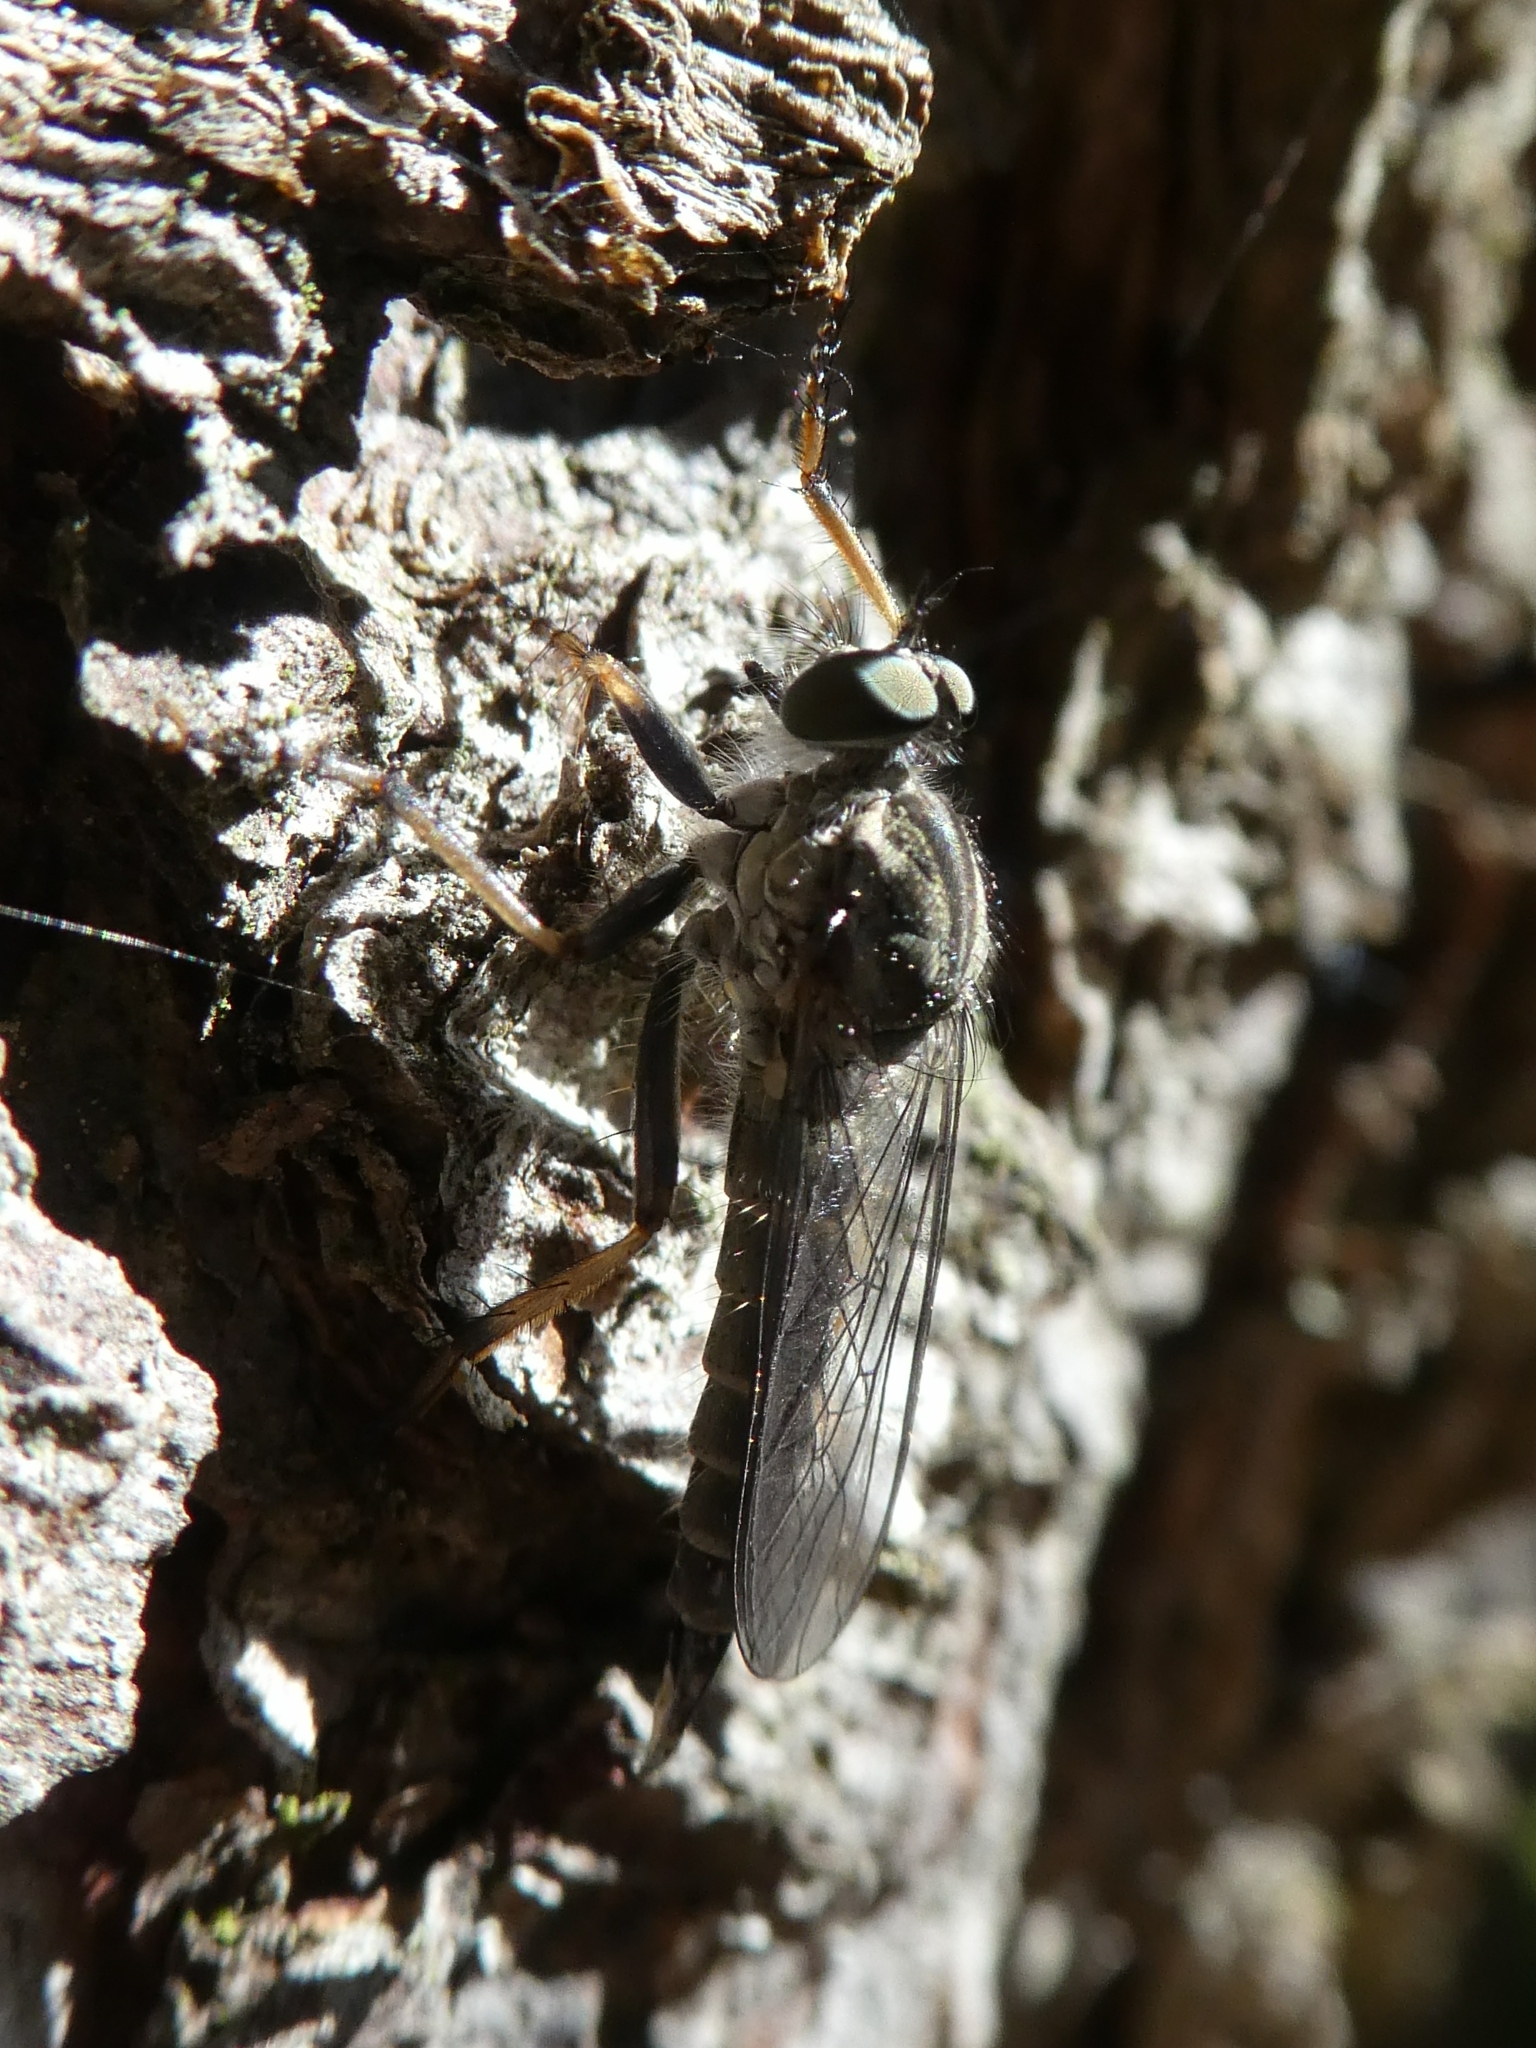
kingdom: Animalia
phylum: Arthropoda
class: Insecta
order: Diptera
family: Asilidae
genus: Paritamus
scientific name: Paritamus geniculatus
